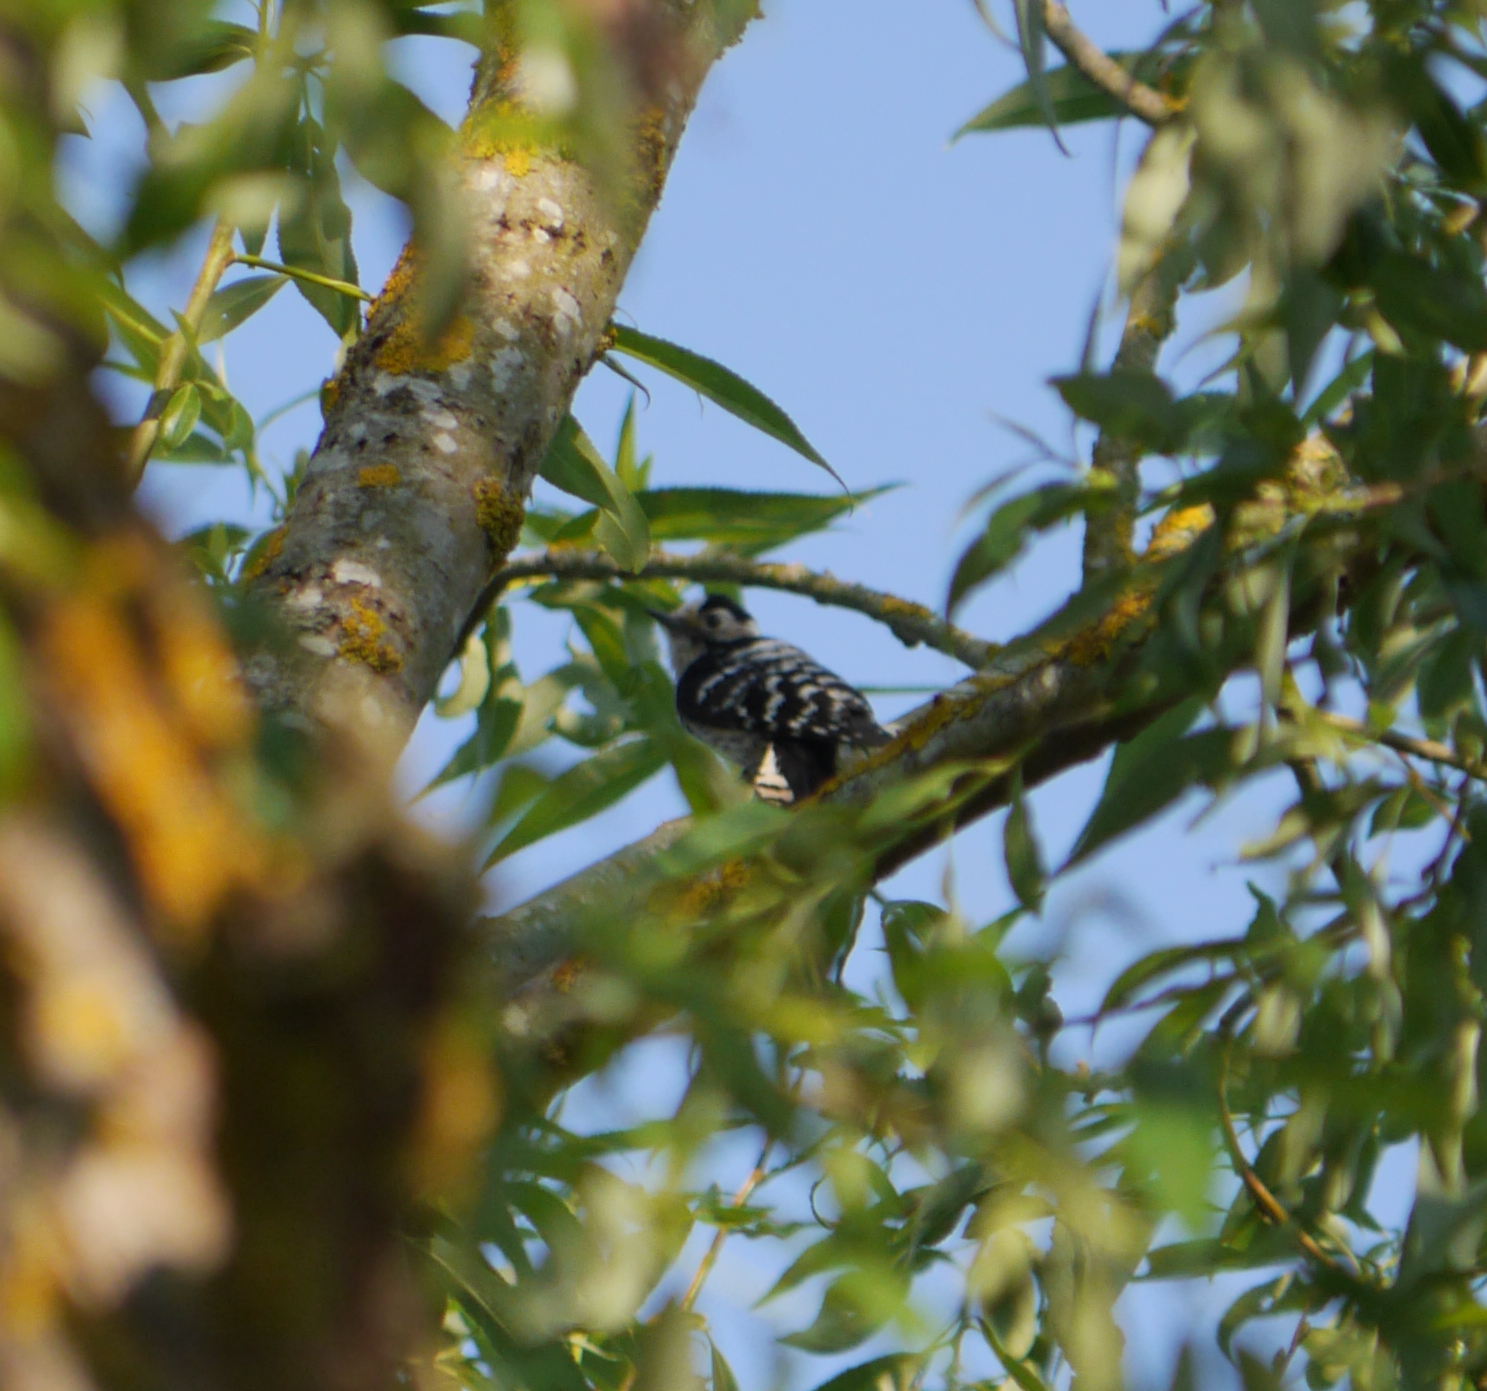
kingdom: Animalia
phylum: Chordata
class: Aves
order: Piciformes
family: Picidae
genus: Dryobates
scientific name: Dryobates minor
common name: Lesser spotted woodpecker
